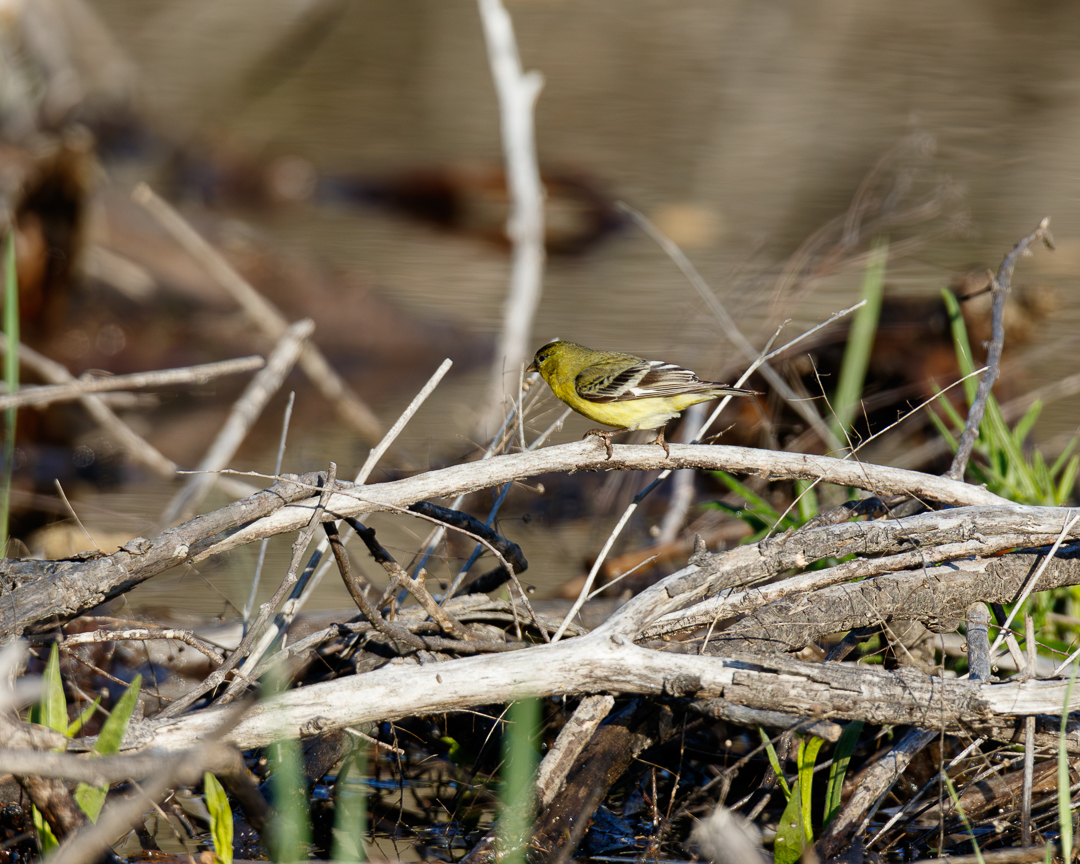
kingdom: Animalia
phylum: Chordata
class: Aves
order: Passeriformes
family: Fringillidae
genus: Spinus
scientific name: Spinus psaltria
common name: Lesser goldfinch
